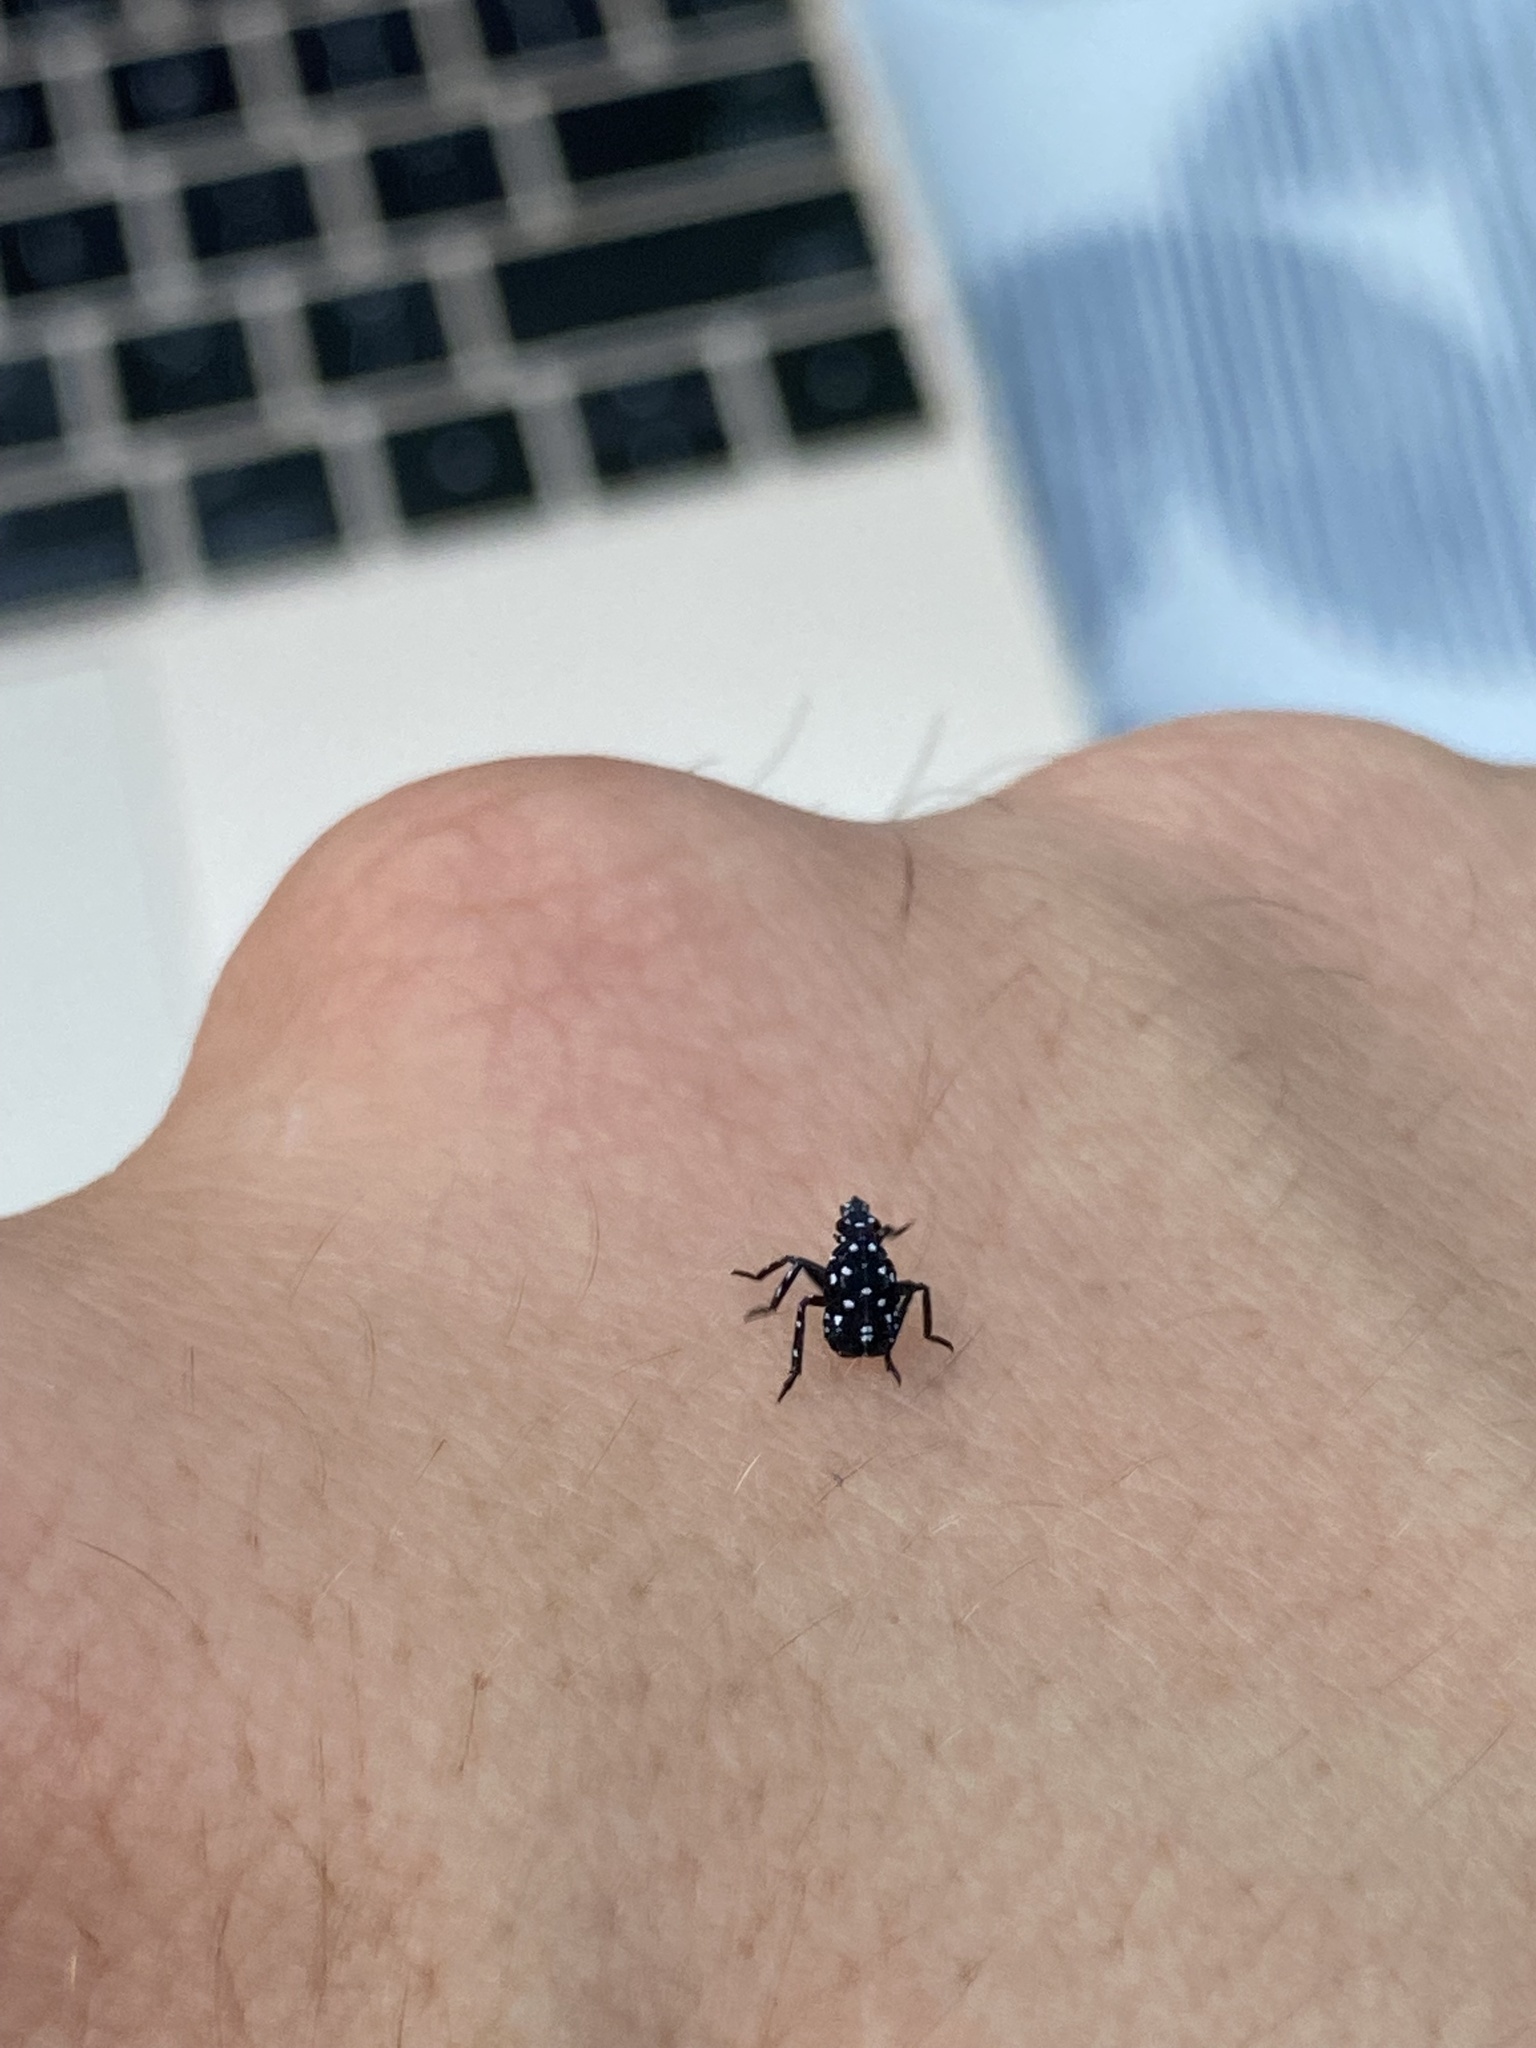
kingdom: Animalia
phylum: Arthropoda
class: Insecta
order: Hemiptera
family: Fulgoridae
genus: Lycorma
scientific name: Lycorma delicatula
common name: Spotted lanternfly
